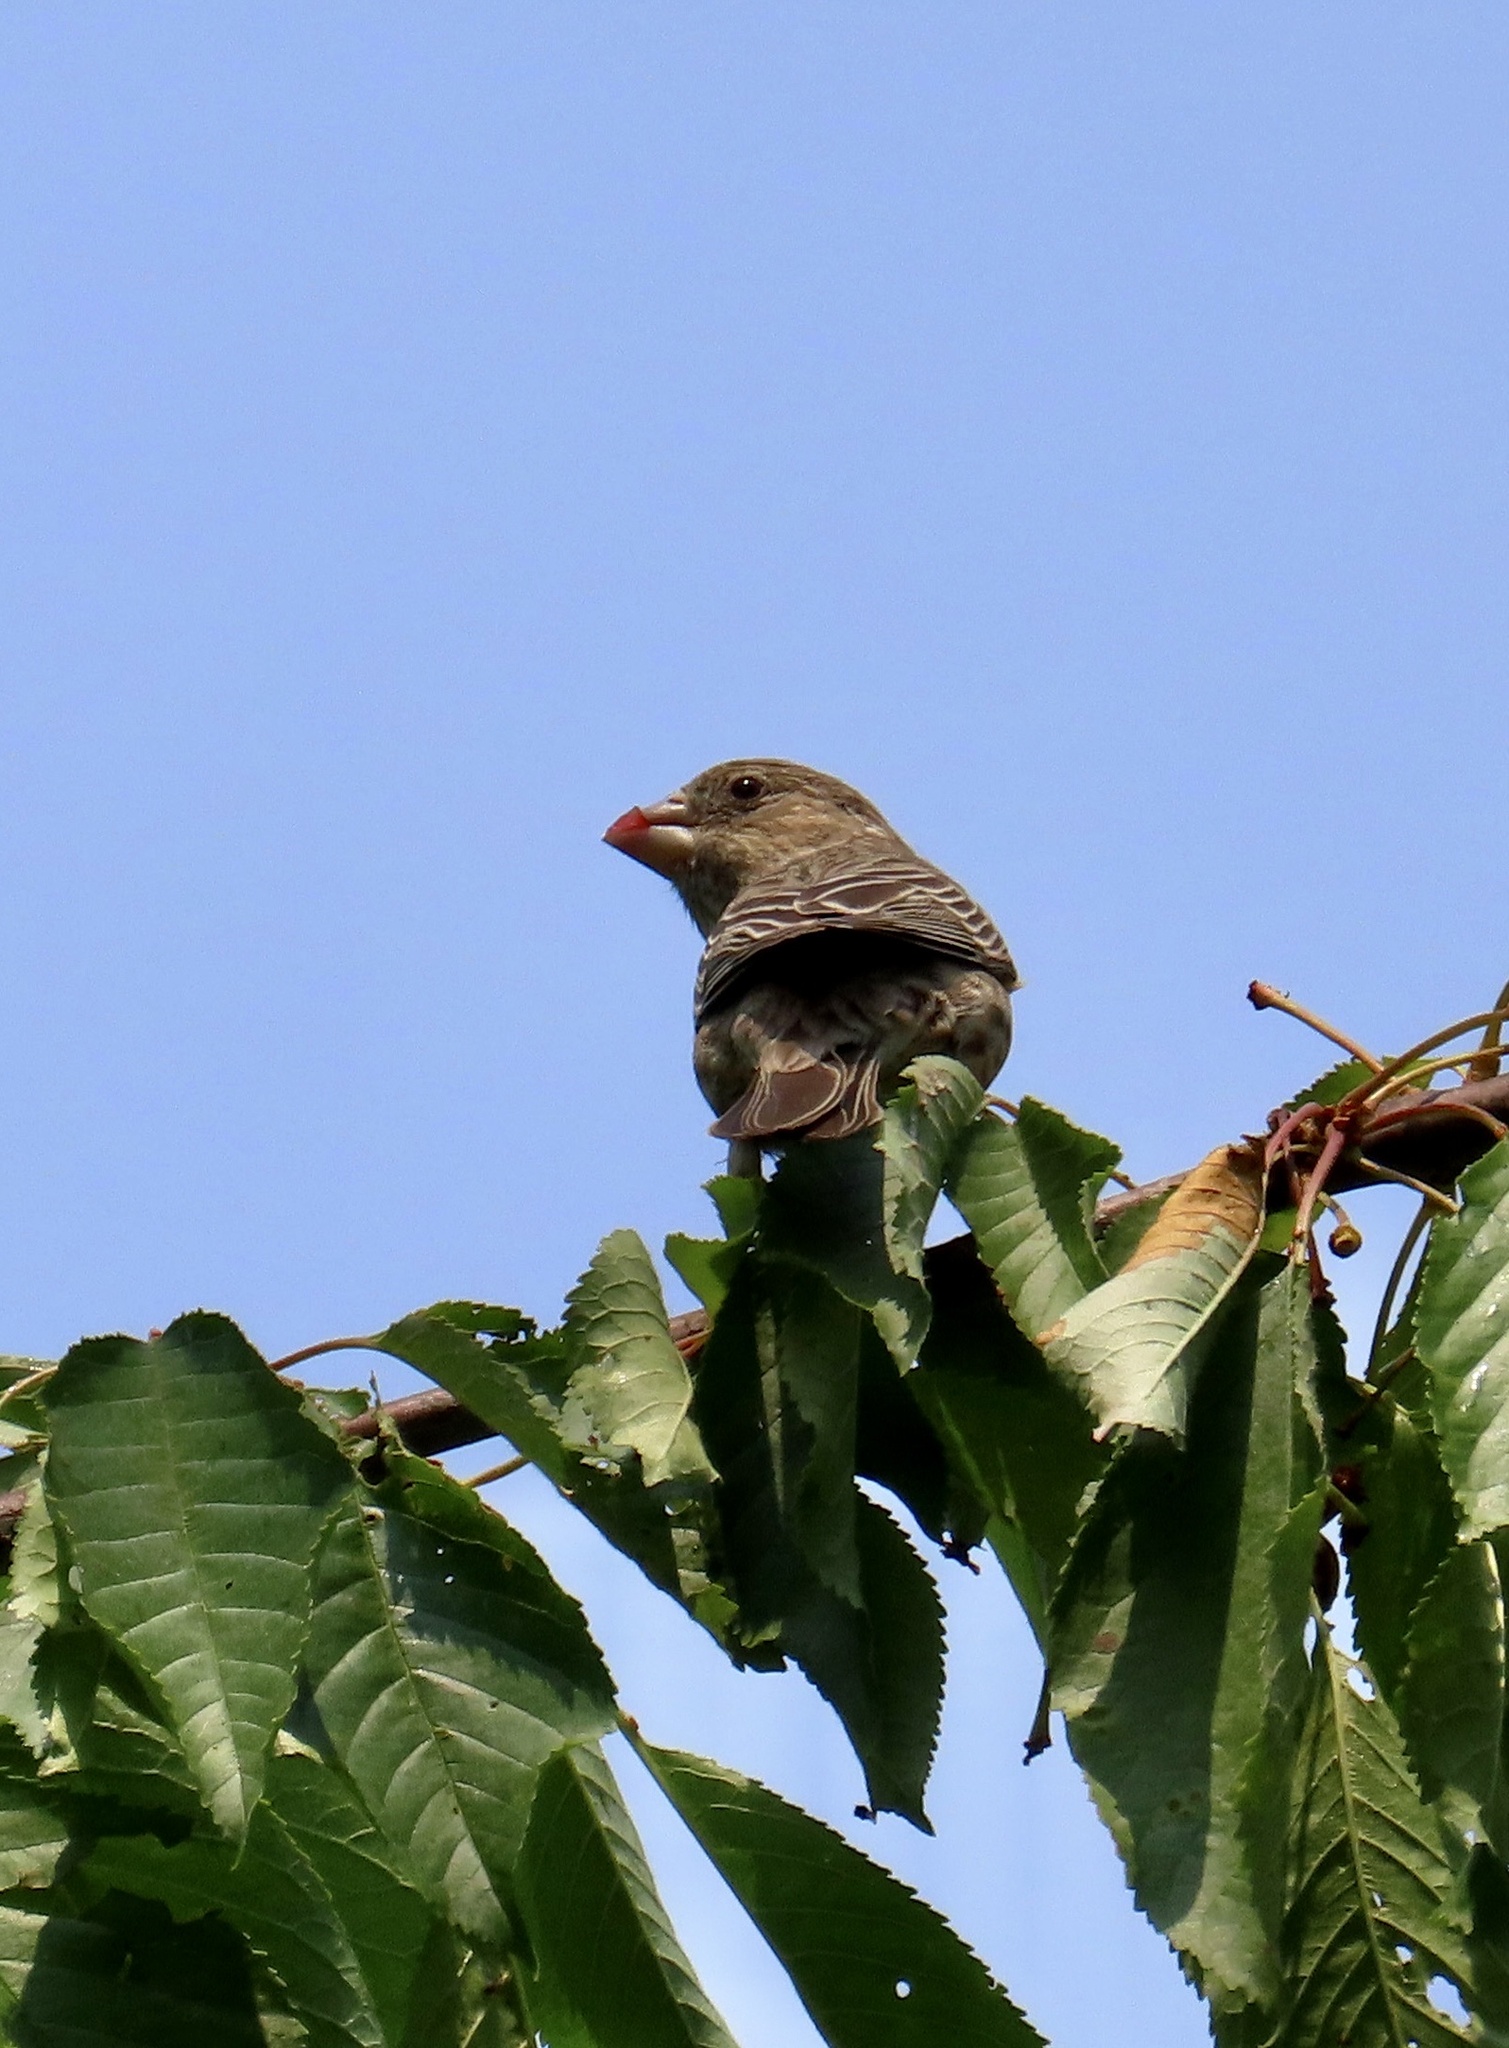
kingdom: Animalia
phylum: Chordata
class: Aves
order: Passeriformes
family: Fringillidae
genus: Haemorhous
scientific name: Haemorhous mexicanus
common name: House finch
